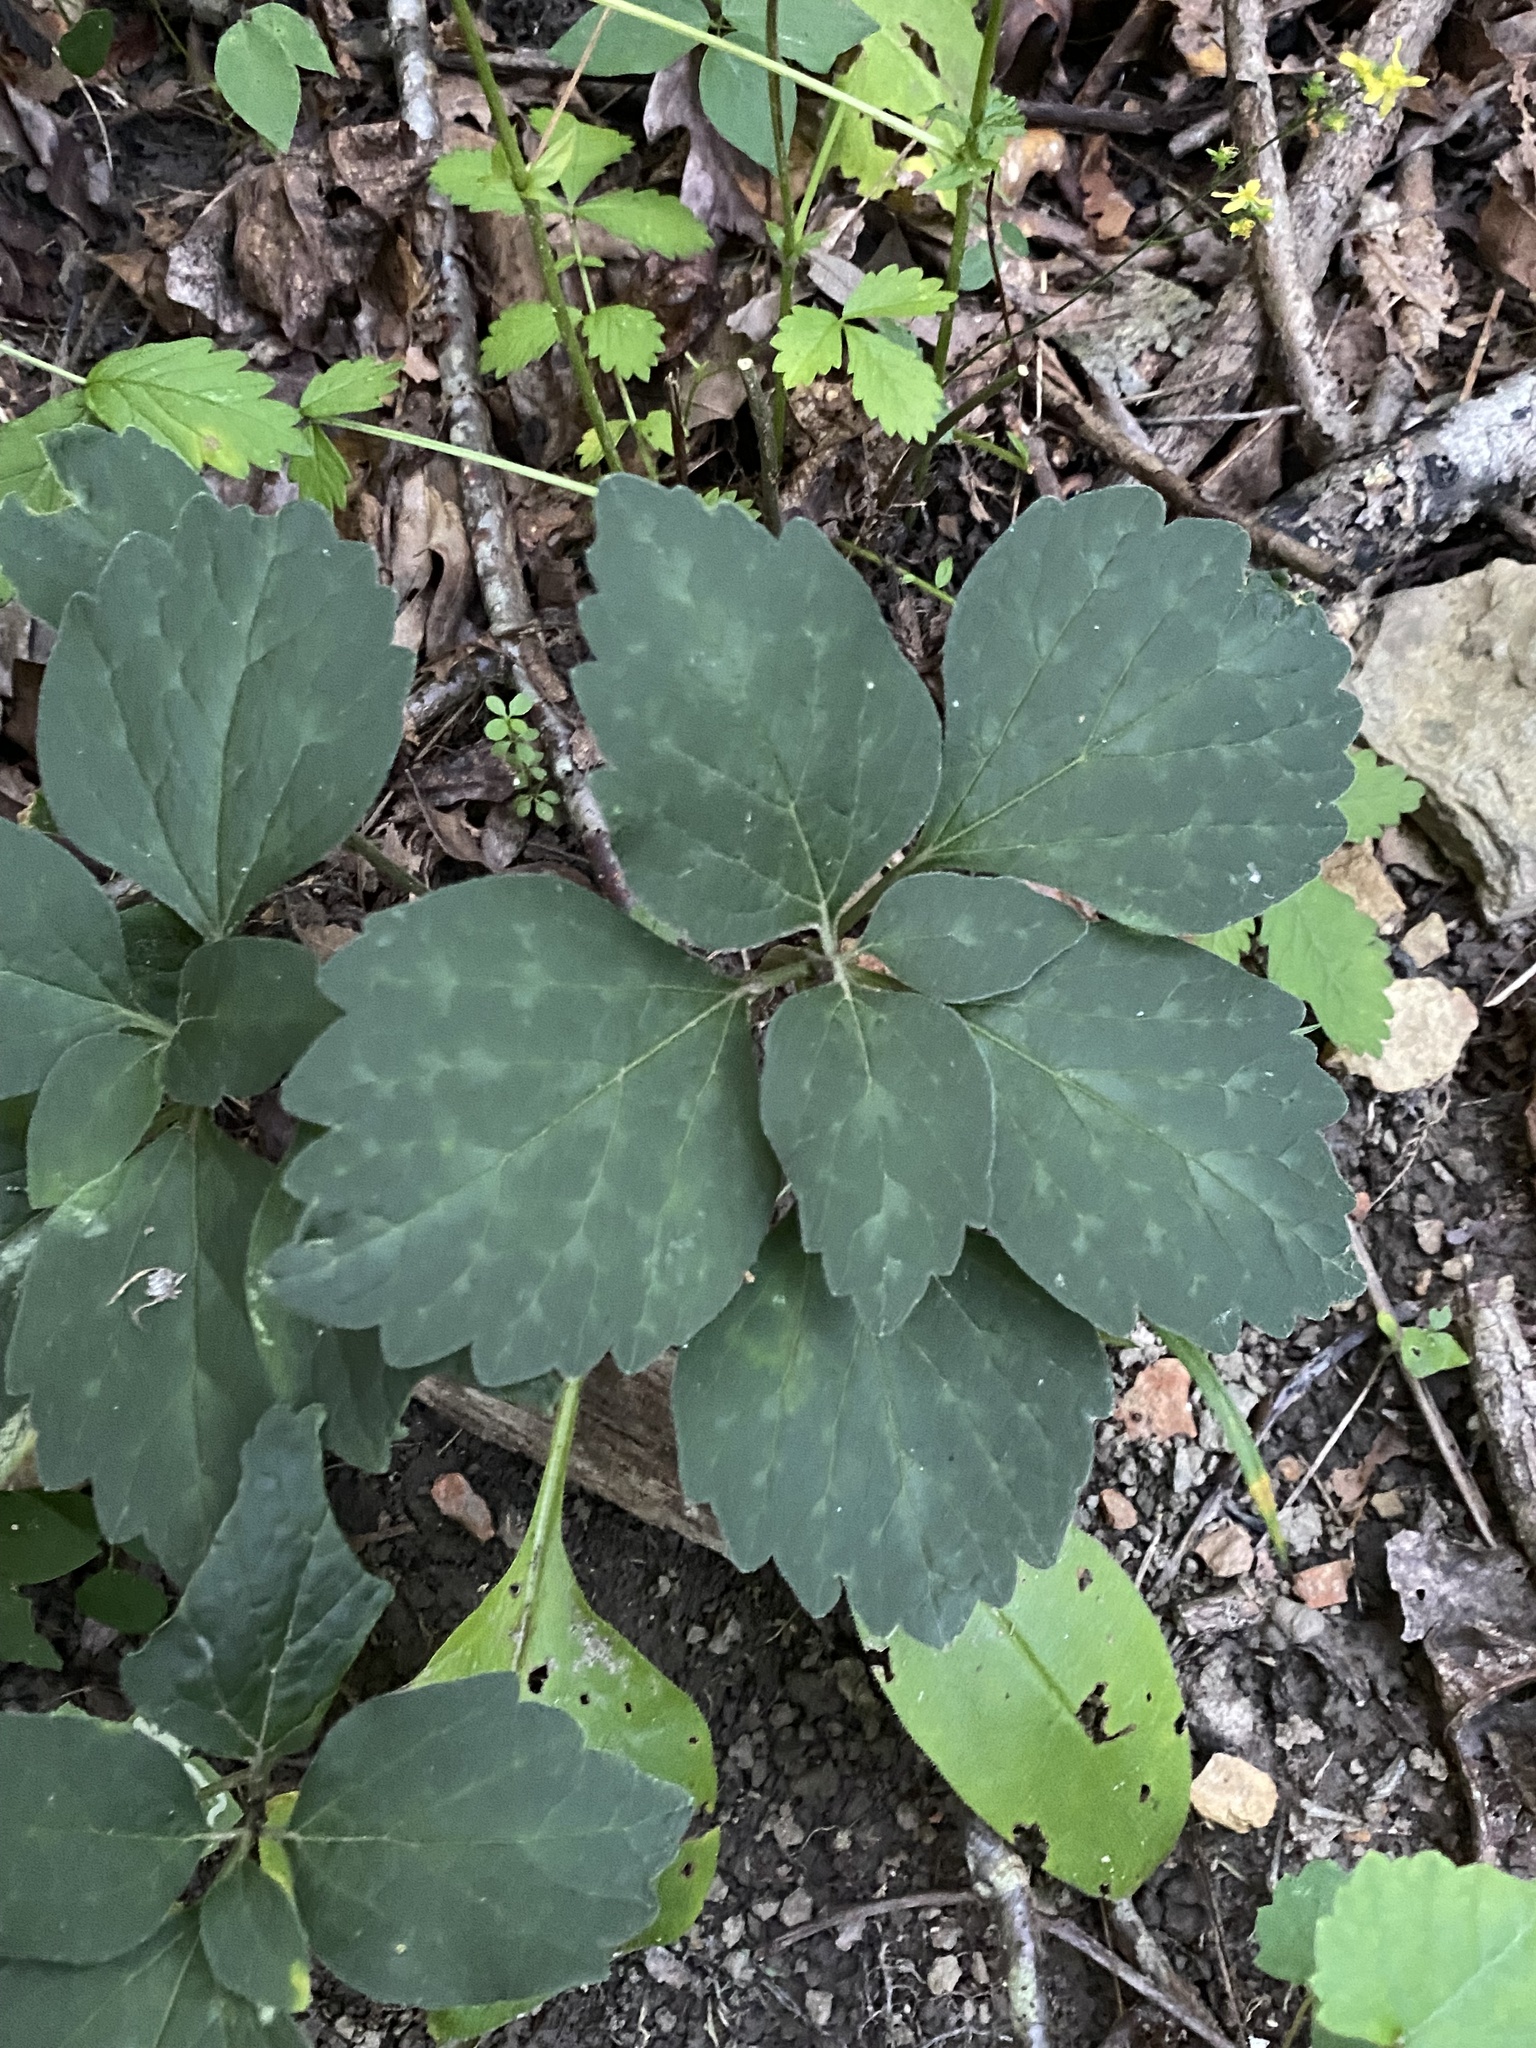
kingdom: Plantae
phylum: Tracheophyta
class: Magnoliopsida
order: Buxales
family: Buxaceae
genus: Pachysandra
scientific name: Pachysandra procumbens
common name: Mountain-spurge
